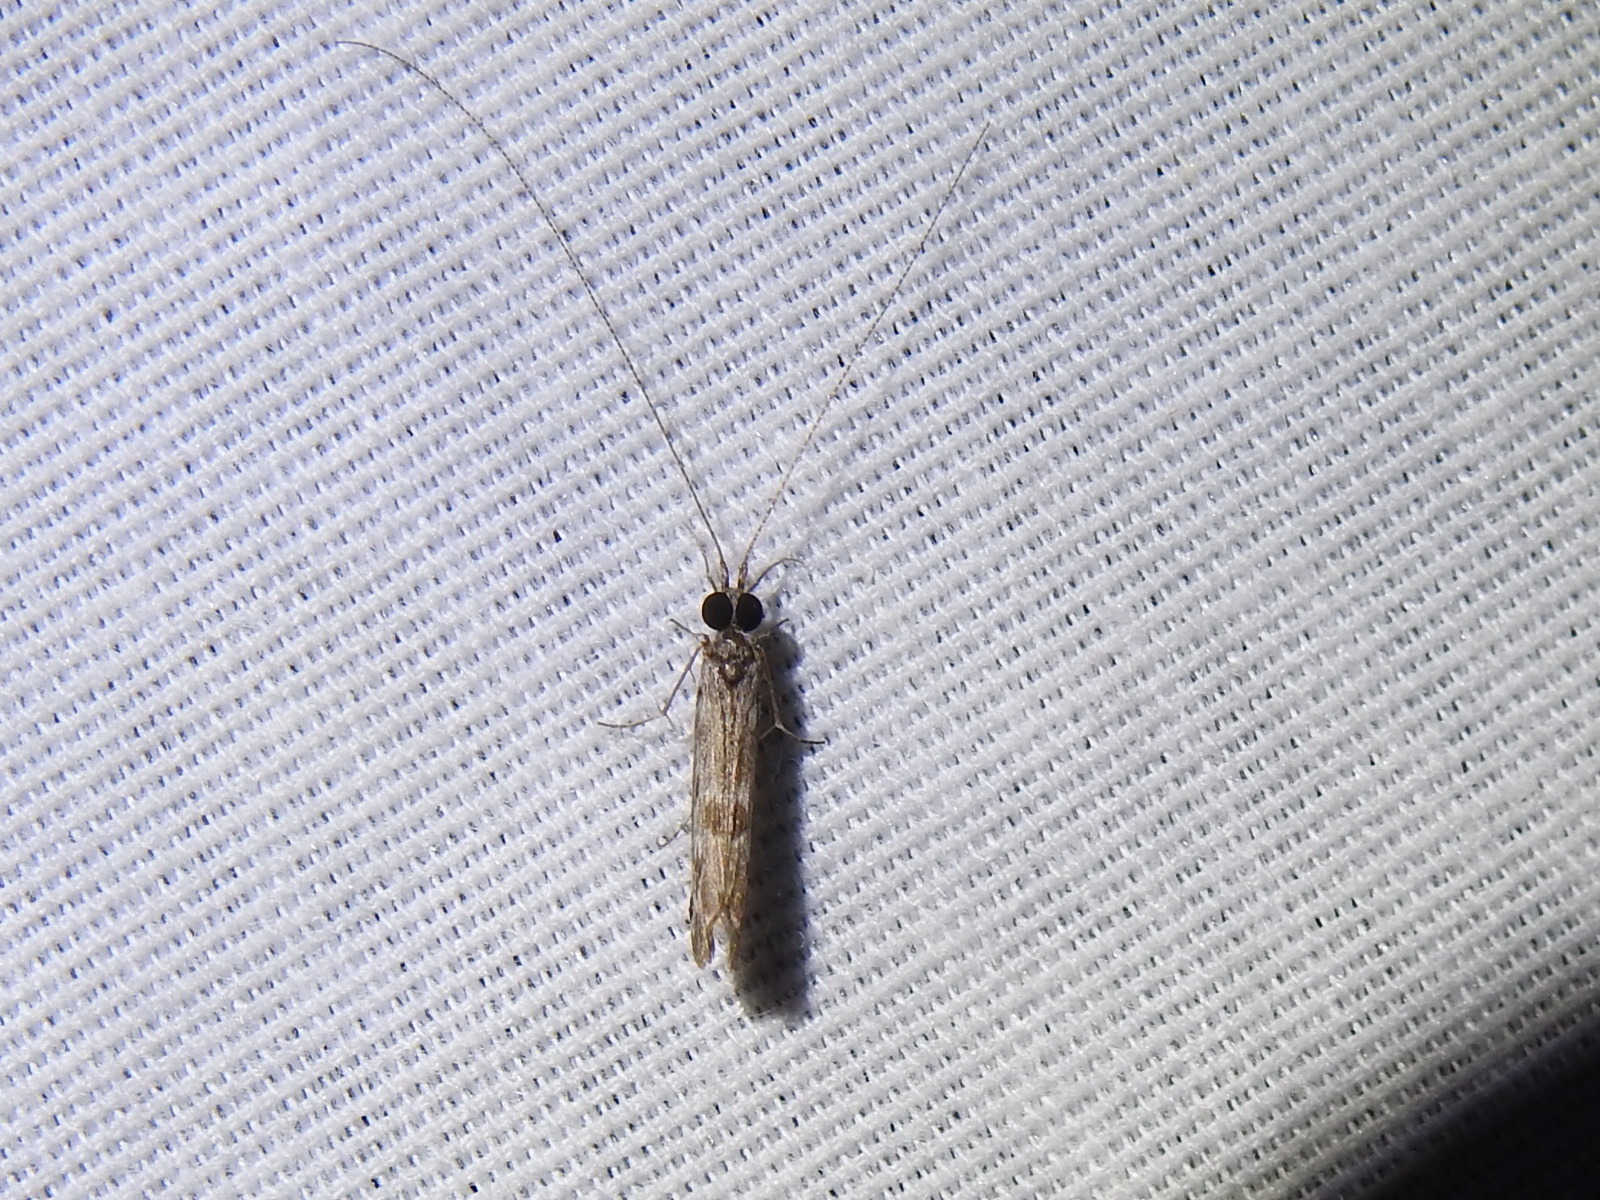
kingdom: Animalia
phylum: Arthropoda
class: Insecta
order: Trichoptera
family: Odontoceridae
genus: Marilia
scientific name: Marilia flexuosa
